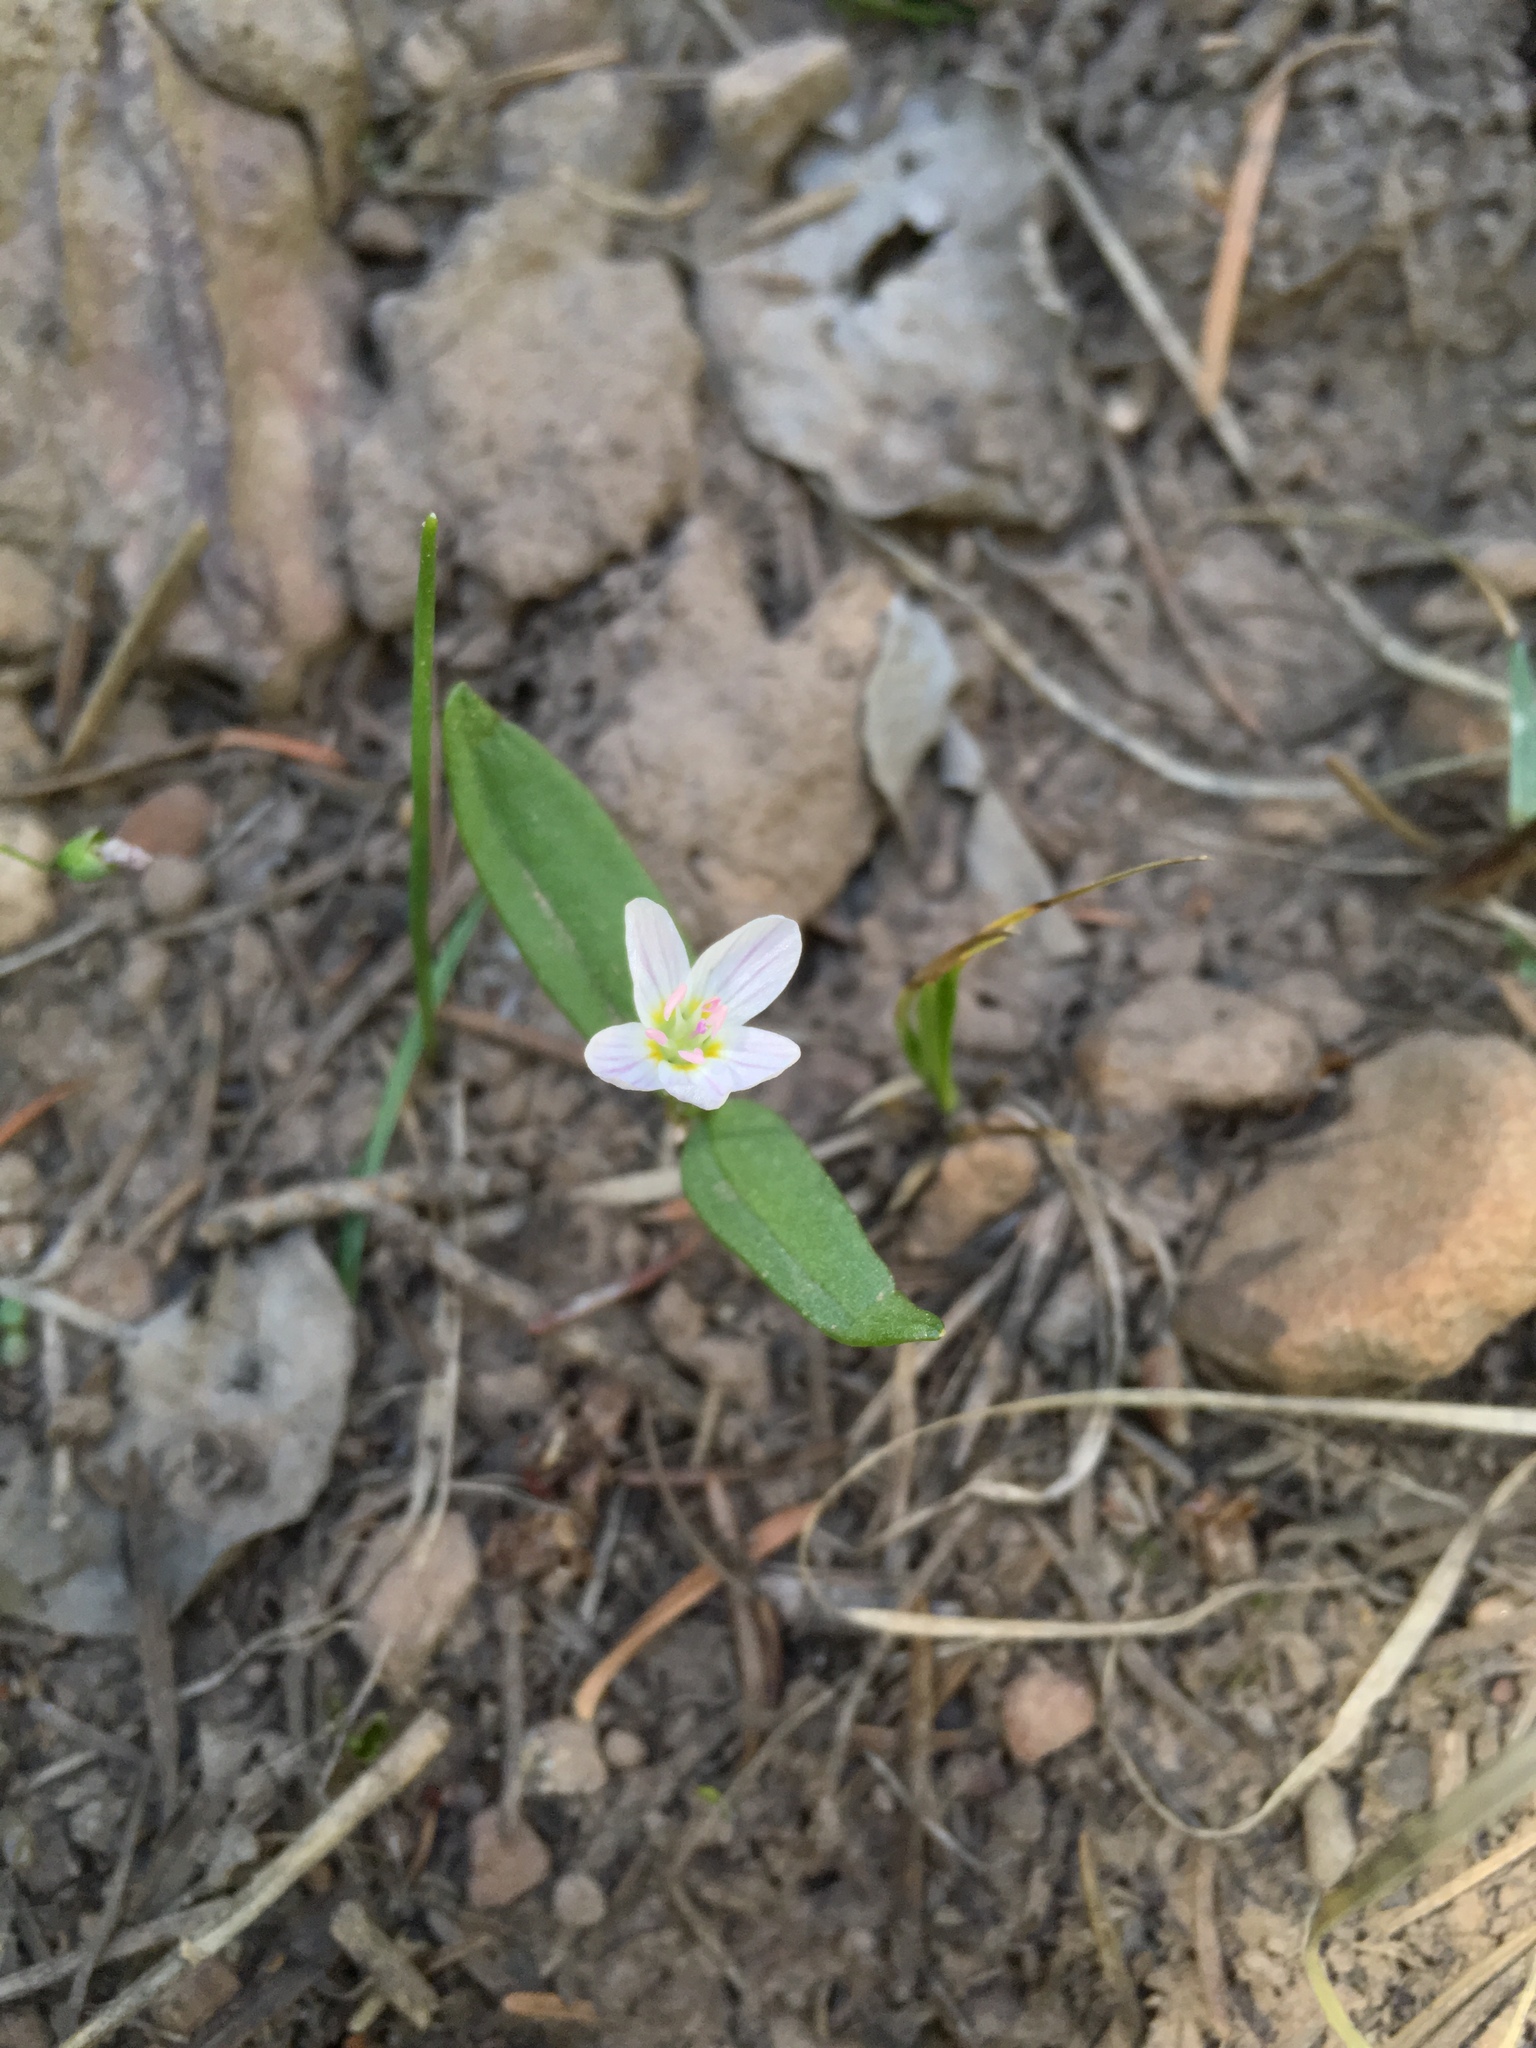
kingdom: Plantae
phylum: Tracheophyta
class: Magnoliopsida
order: Caryophyllales
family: Montiaceae
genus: Claytonia
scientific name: Claytonia lanceolata
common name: Western spring-beauty
